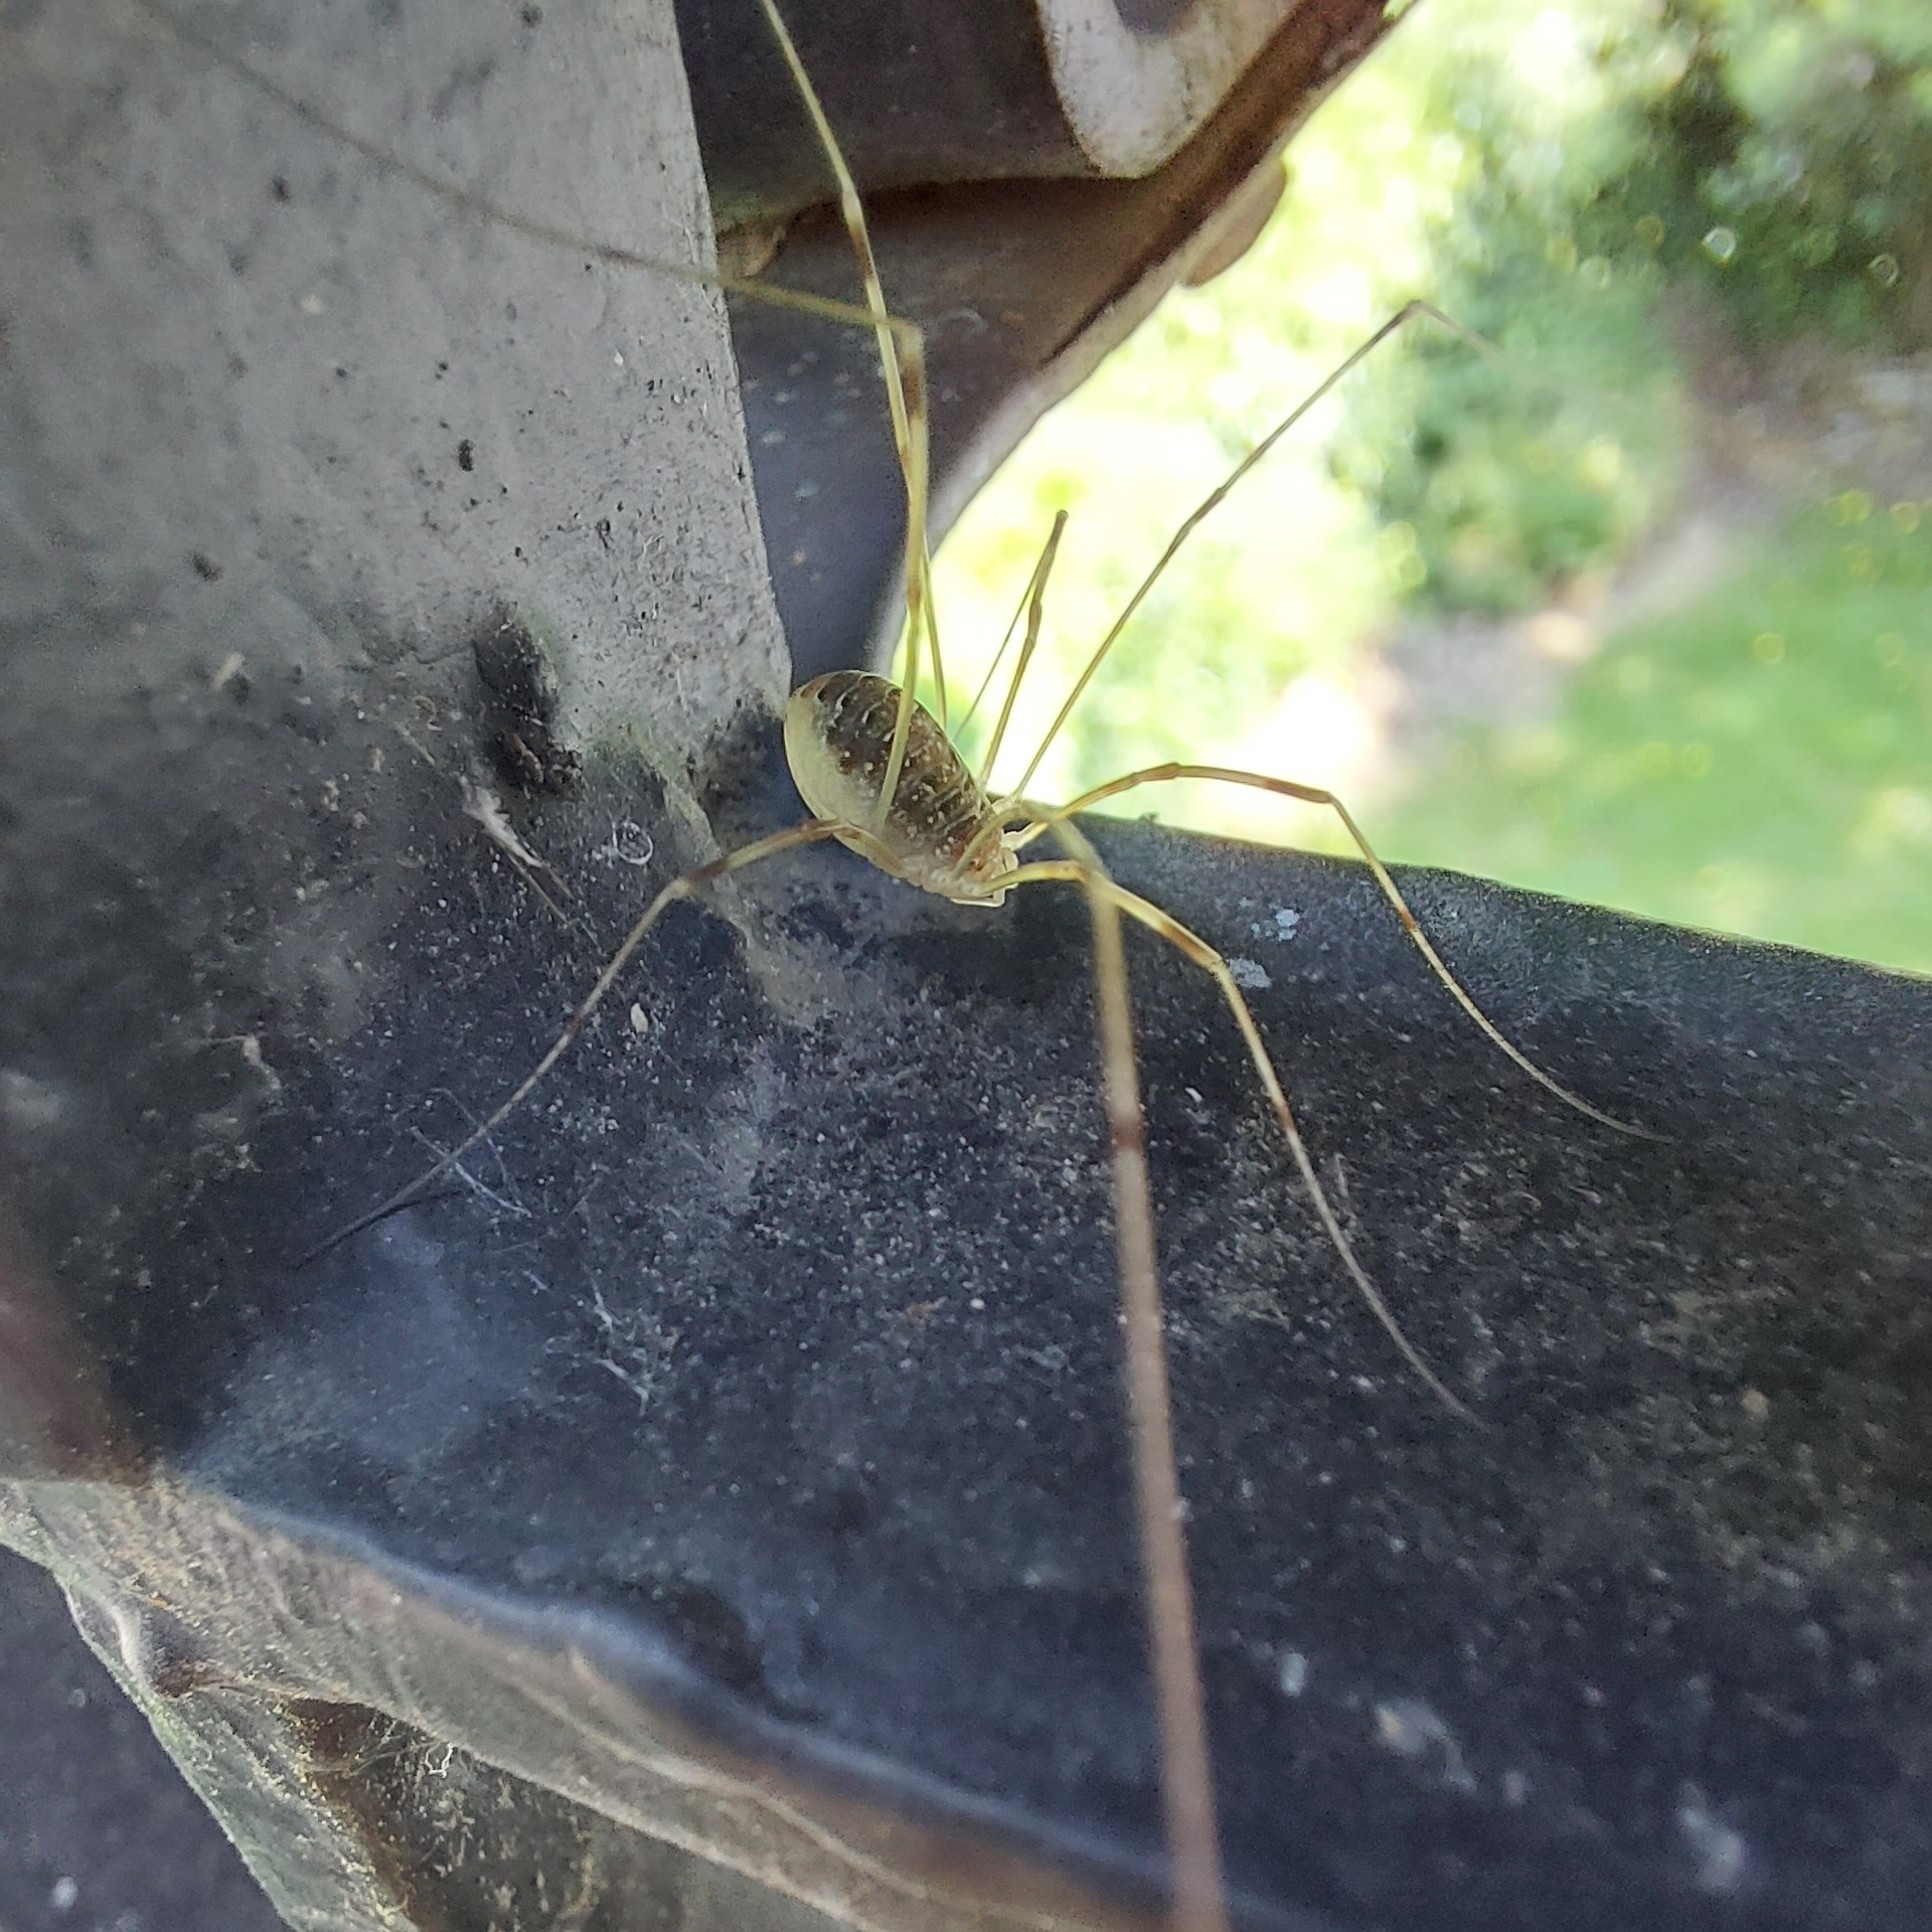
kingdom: Animalia
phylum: Arthropoda
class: Arachnida
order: Opiliones
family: Phalangiidae
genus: Opilio
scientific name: Opilio canestrinii
